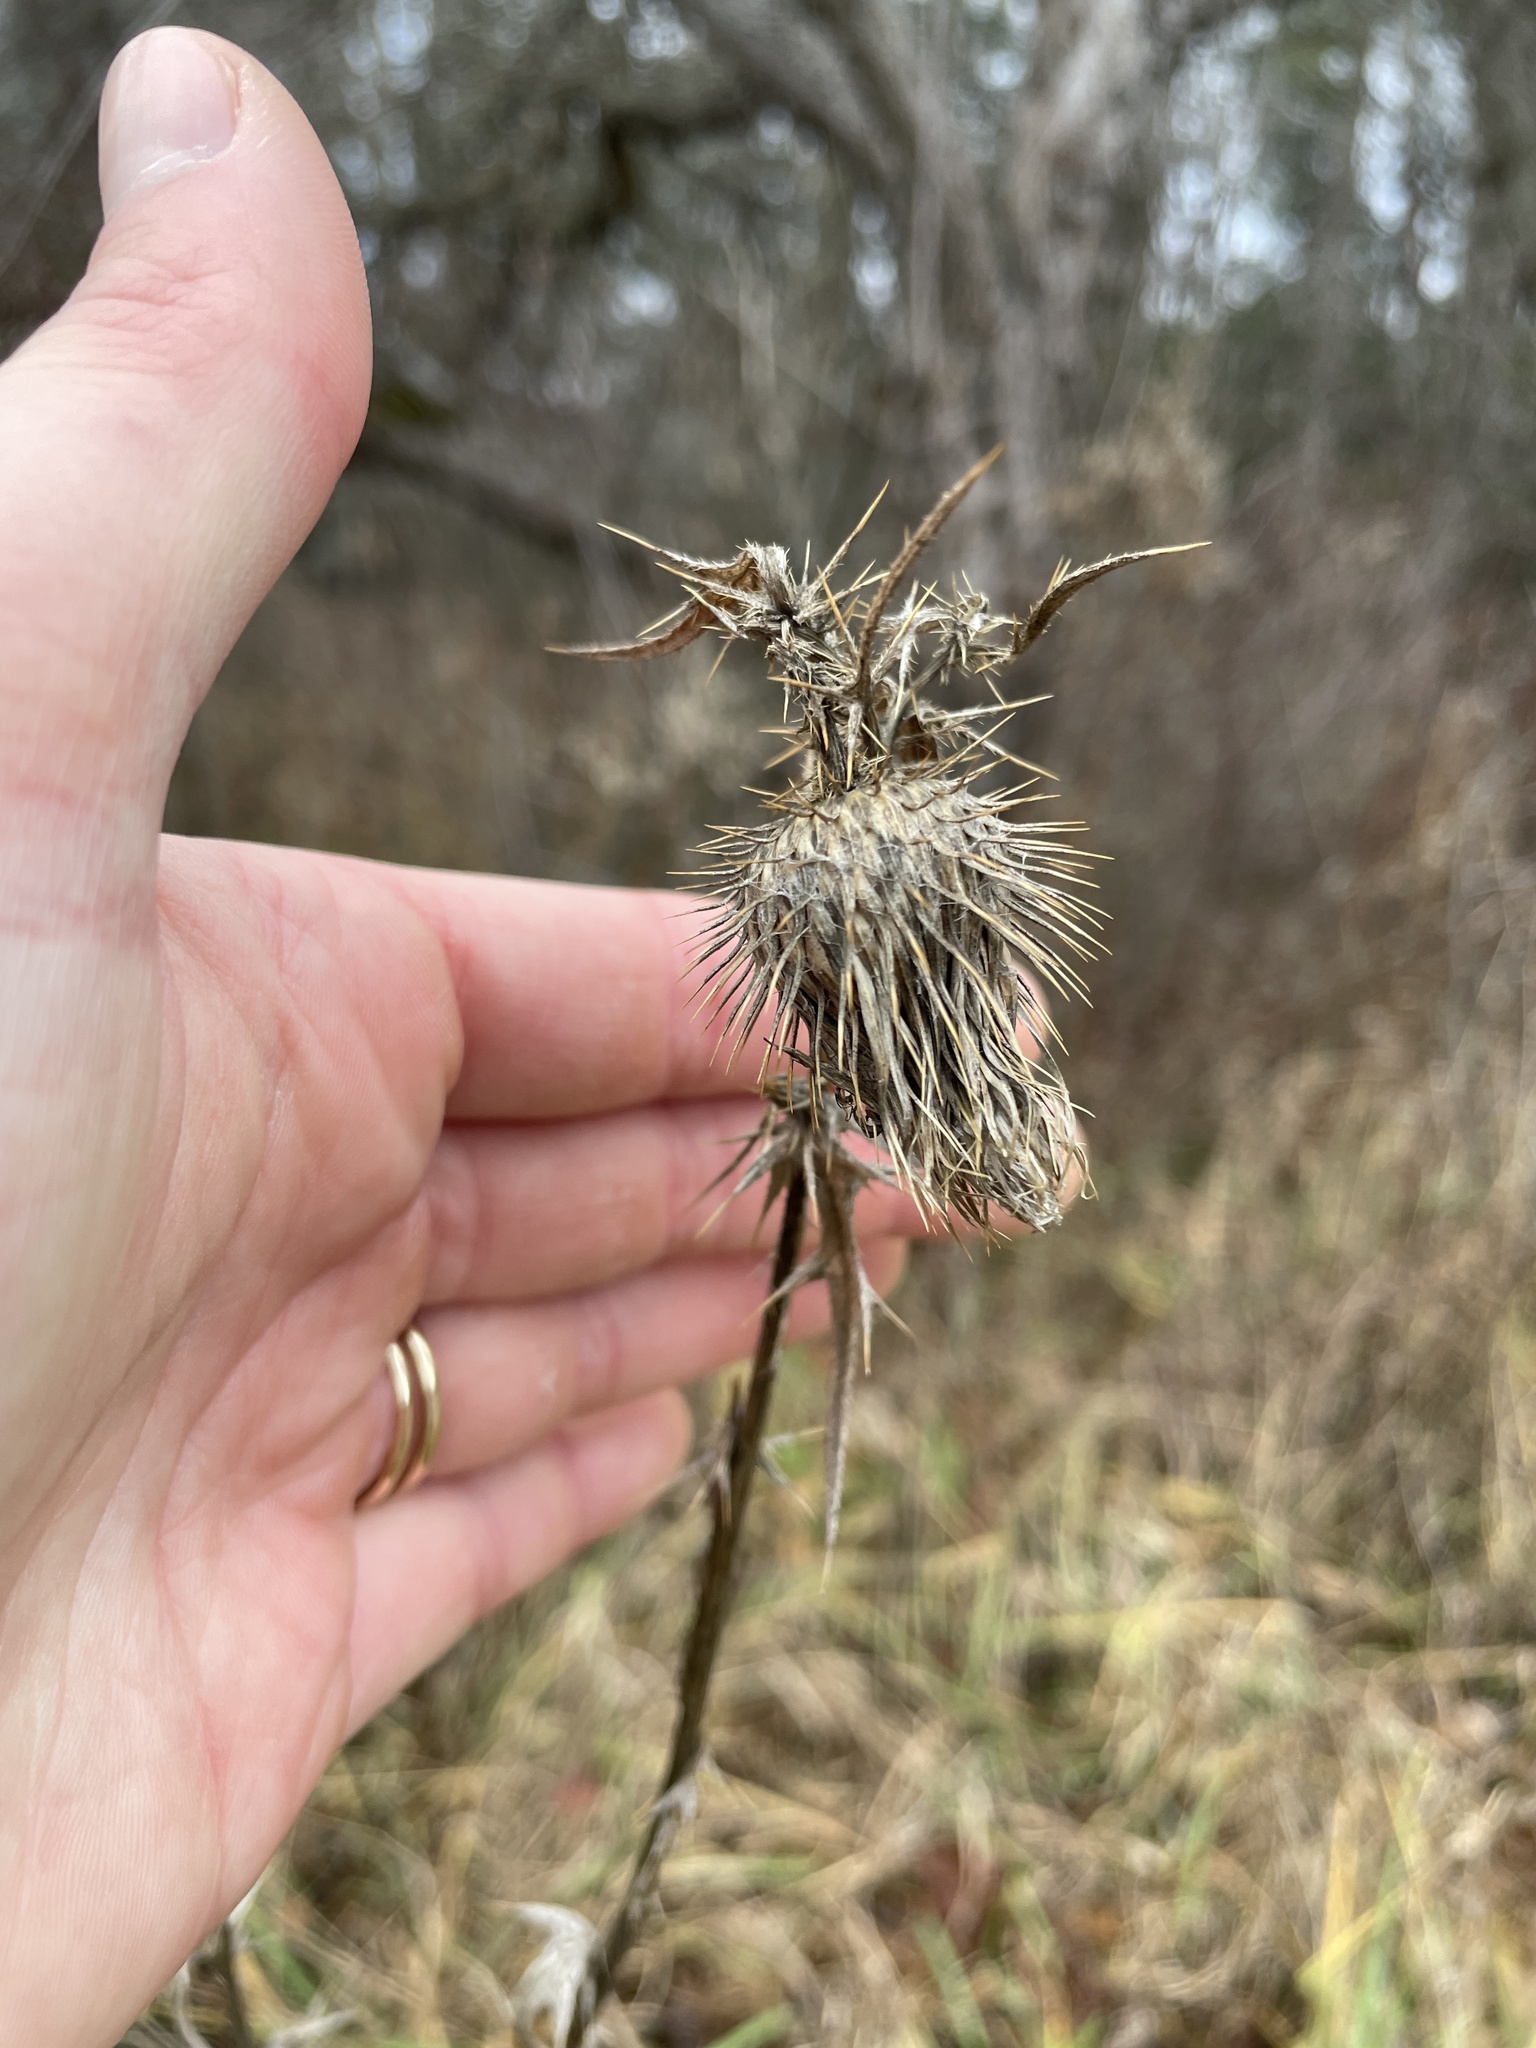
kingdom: Plantae
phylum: Tracheophyta
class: Magnoliopsida
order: Asterales
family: Asteraceae
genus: Cirsium
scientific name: Cirsium vulgare
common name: Bull thistle
